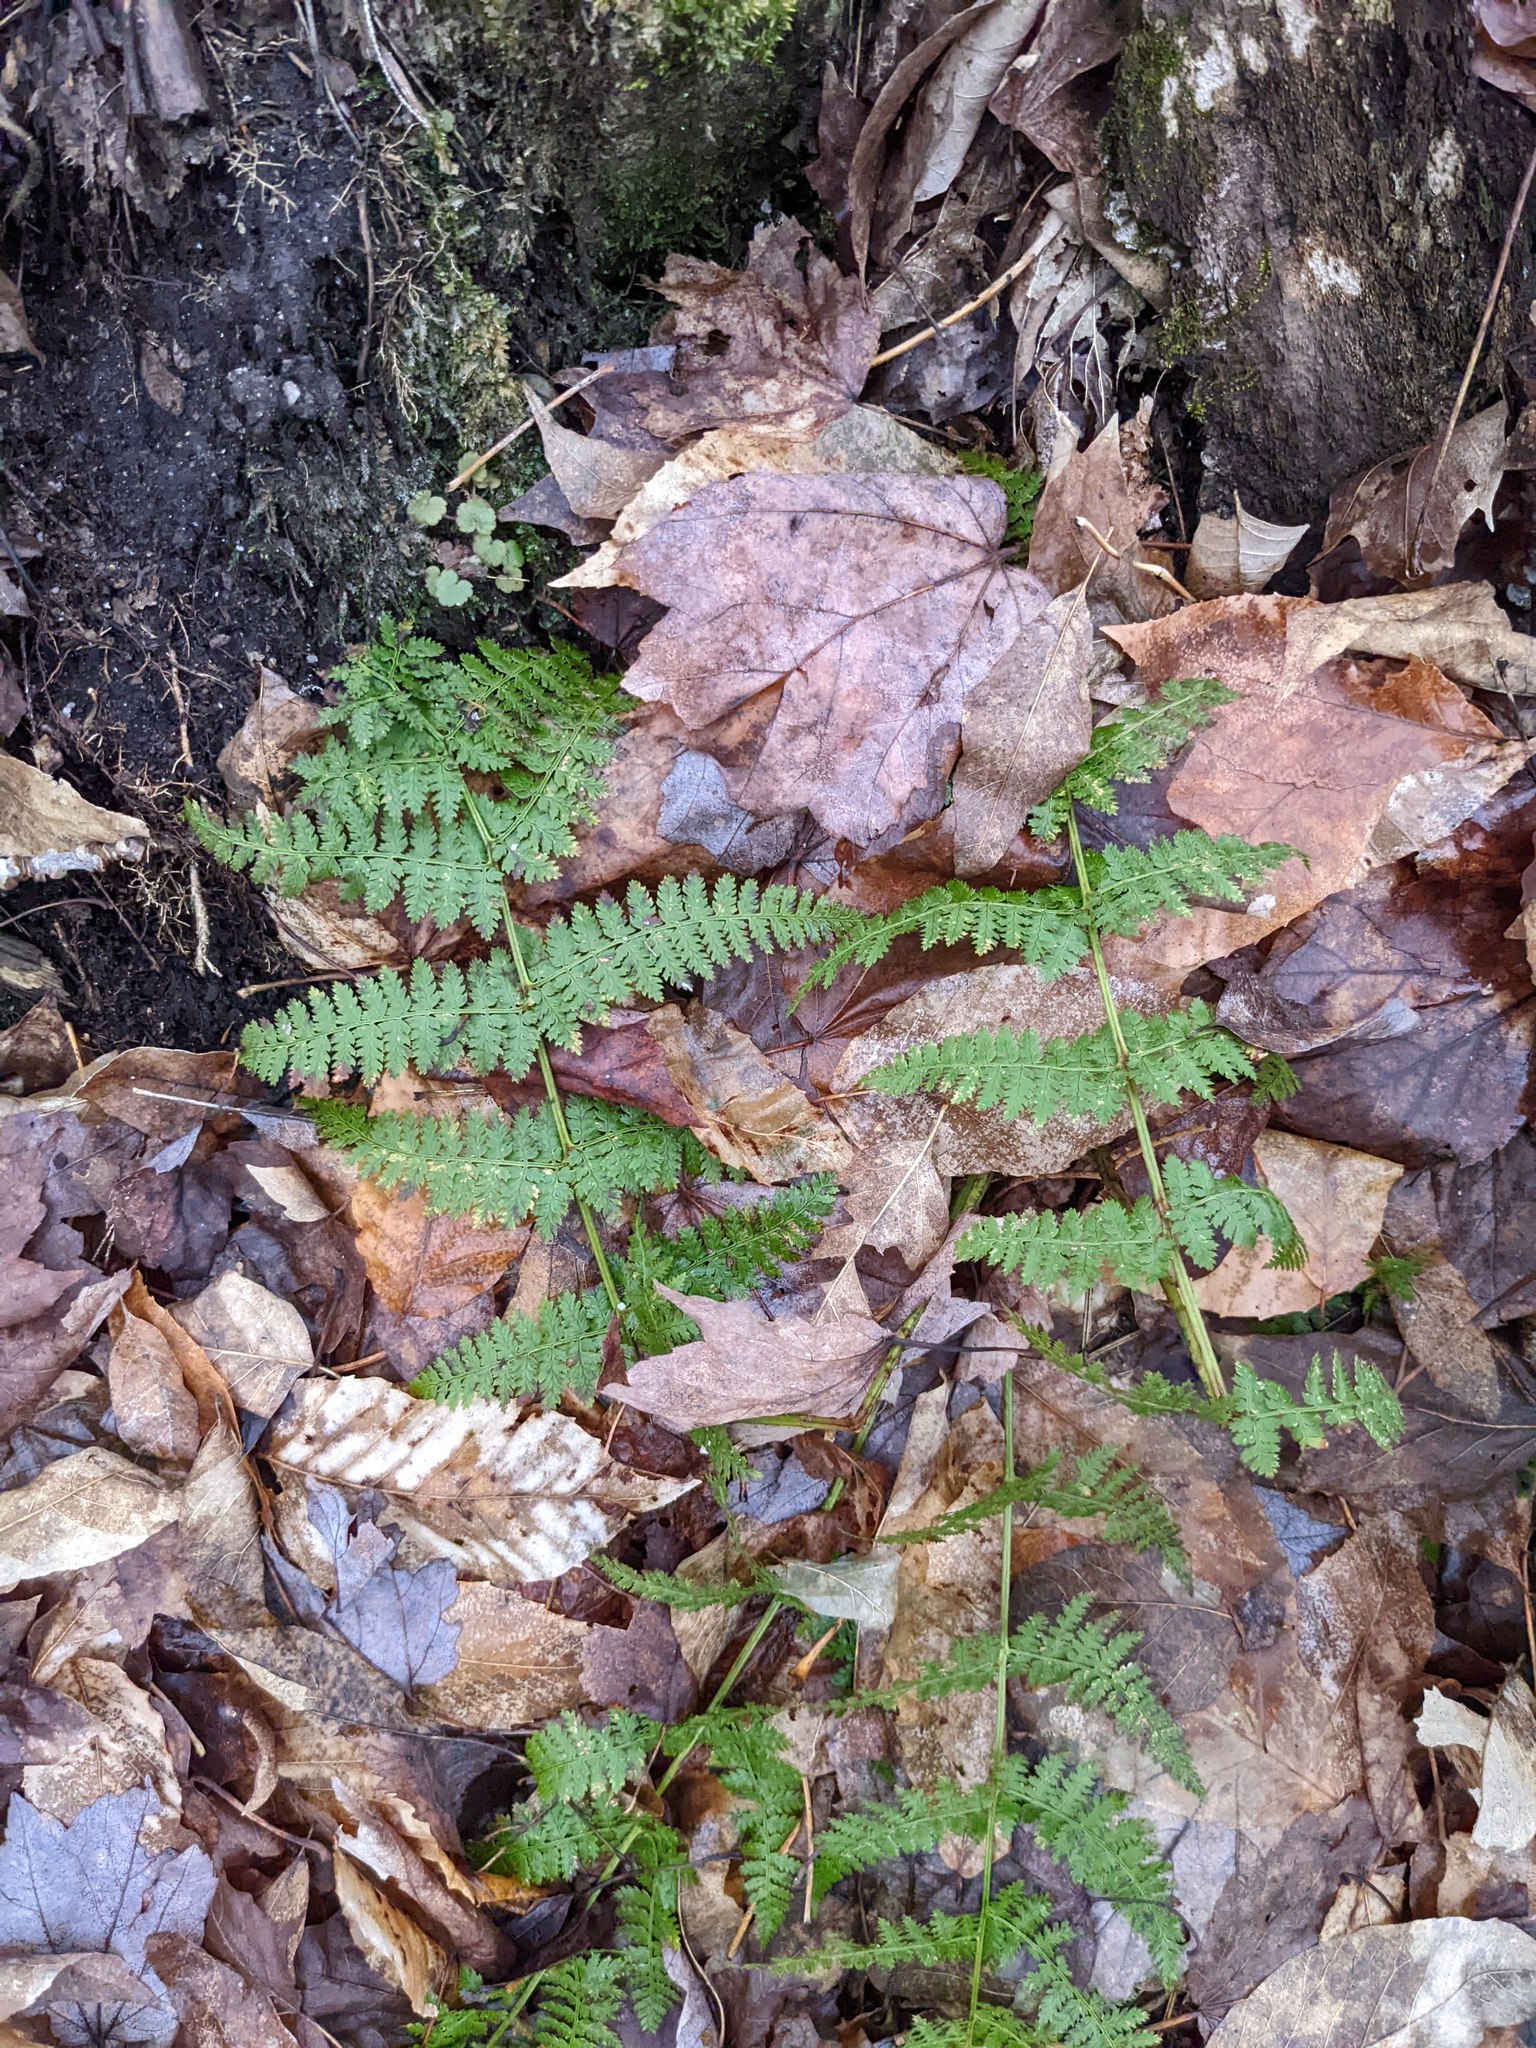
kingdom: Plantae
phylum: Tracheophyta
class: Polypodiopsida
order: Polypodiales
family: Dryopteridaceae
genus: Dryopteris
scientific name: Dryopteris intermedia
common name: Evergreen wood fern
